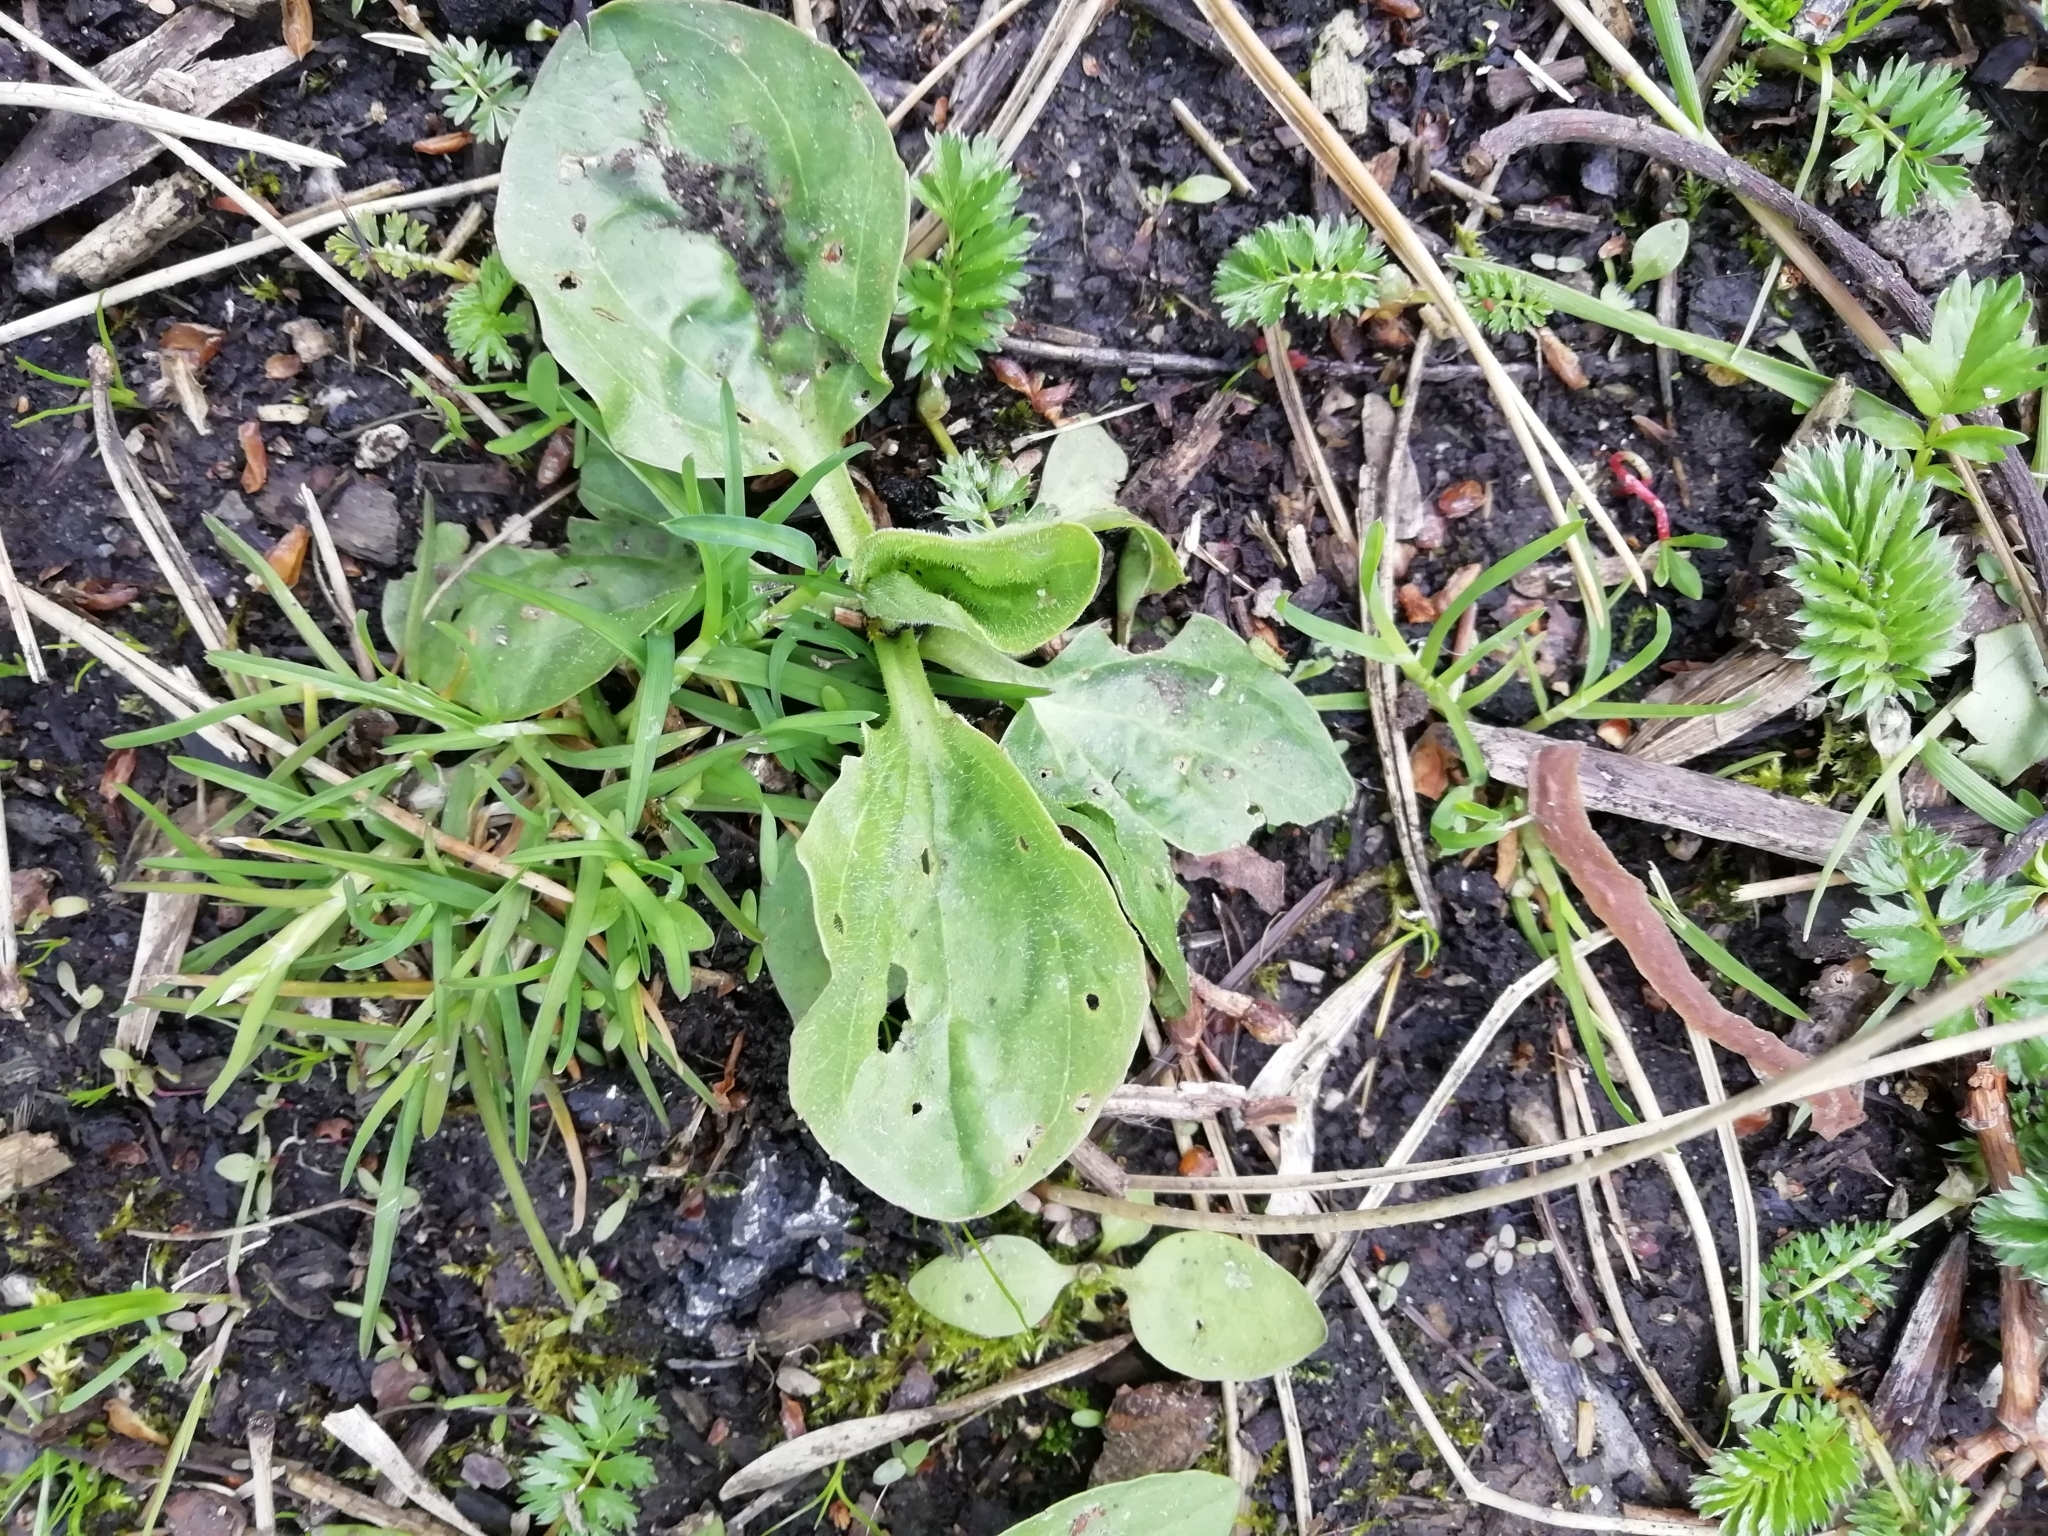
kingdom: Plantae
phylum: Tracheophyta
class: Magnoliopsida
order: Lamiales
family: Plantaginaceae
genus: Plantago
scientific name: Plantago major
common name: Common plantain
